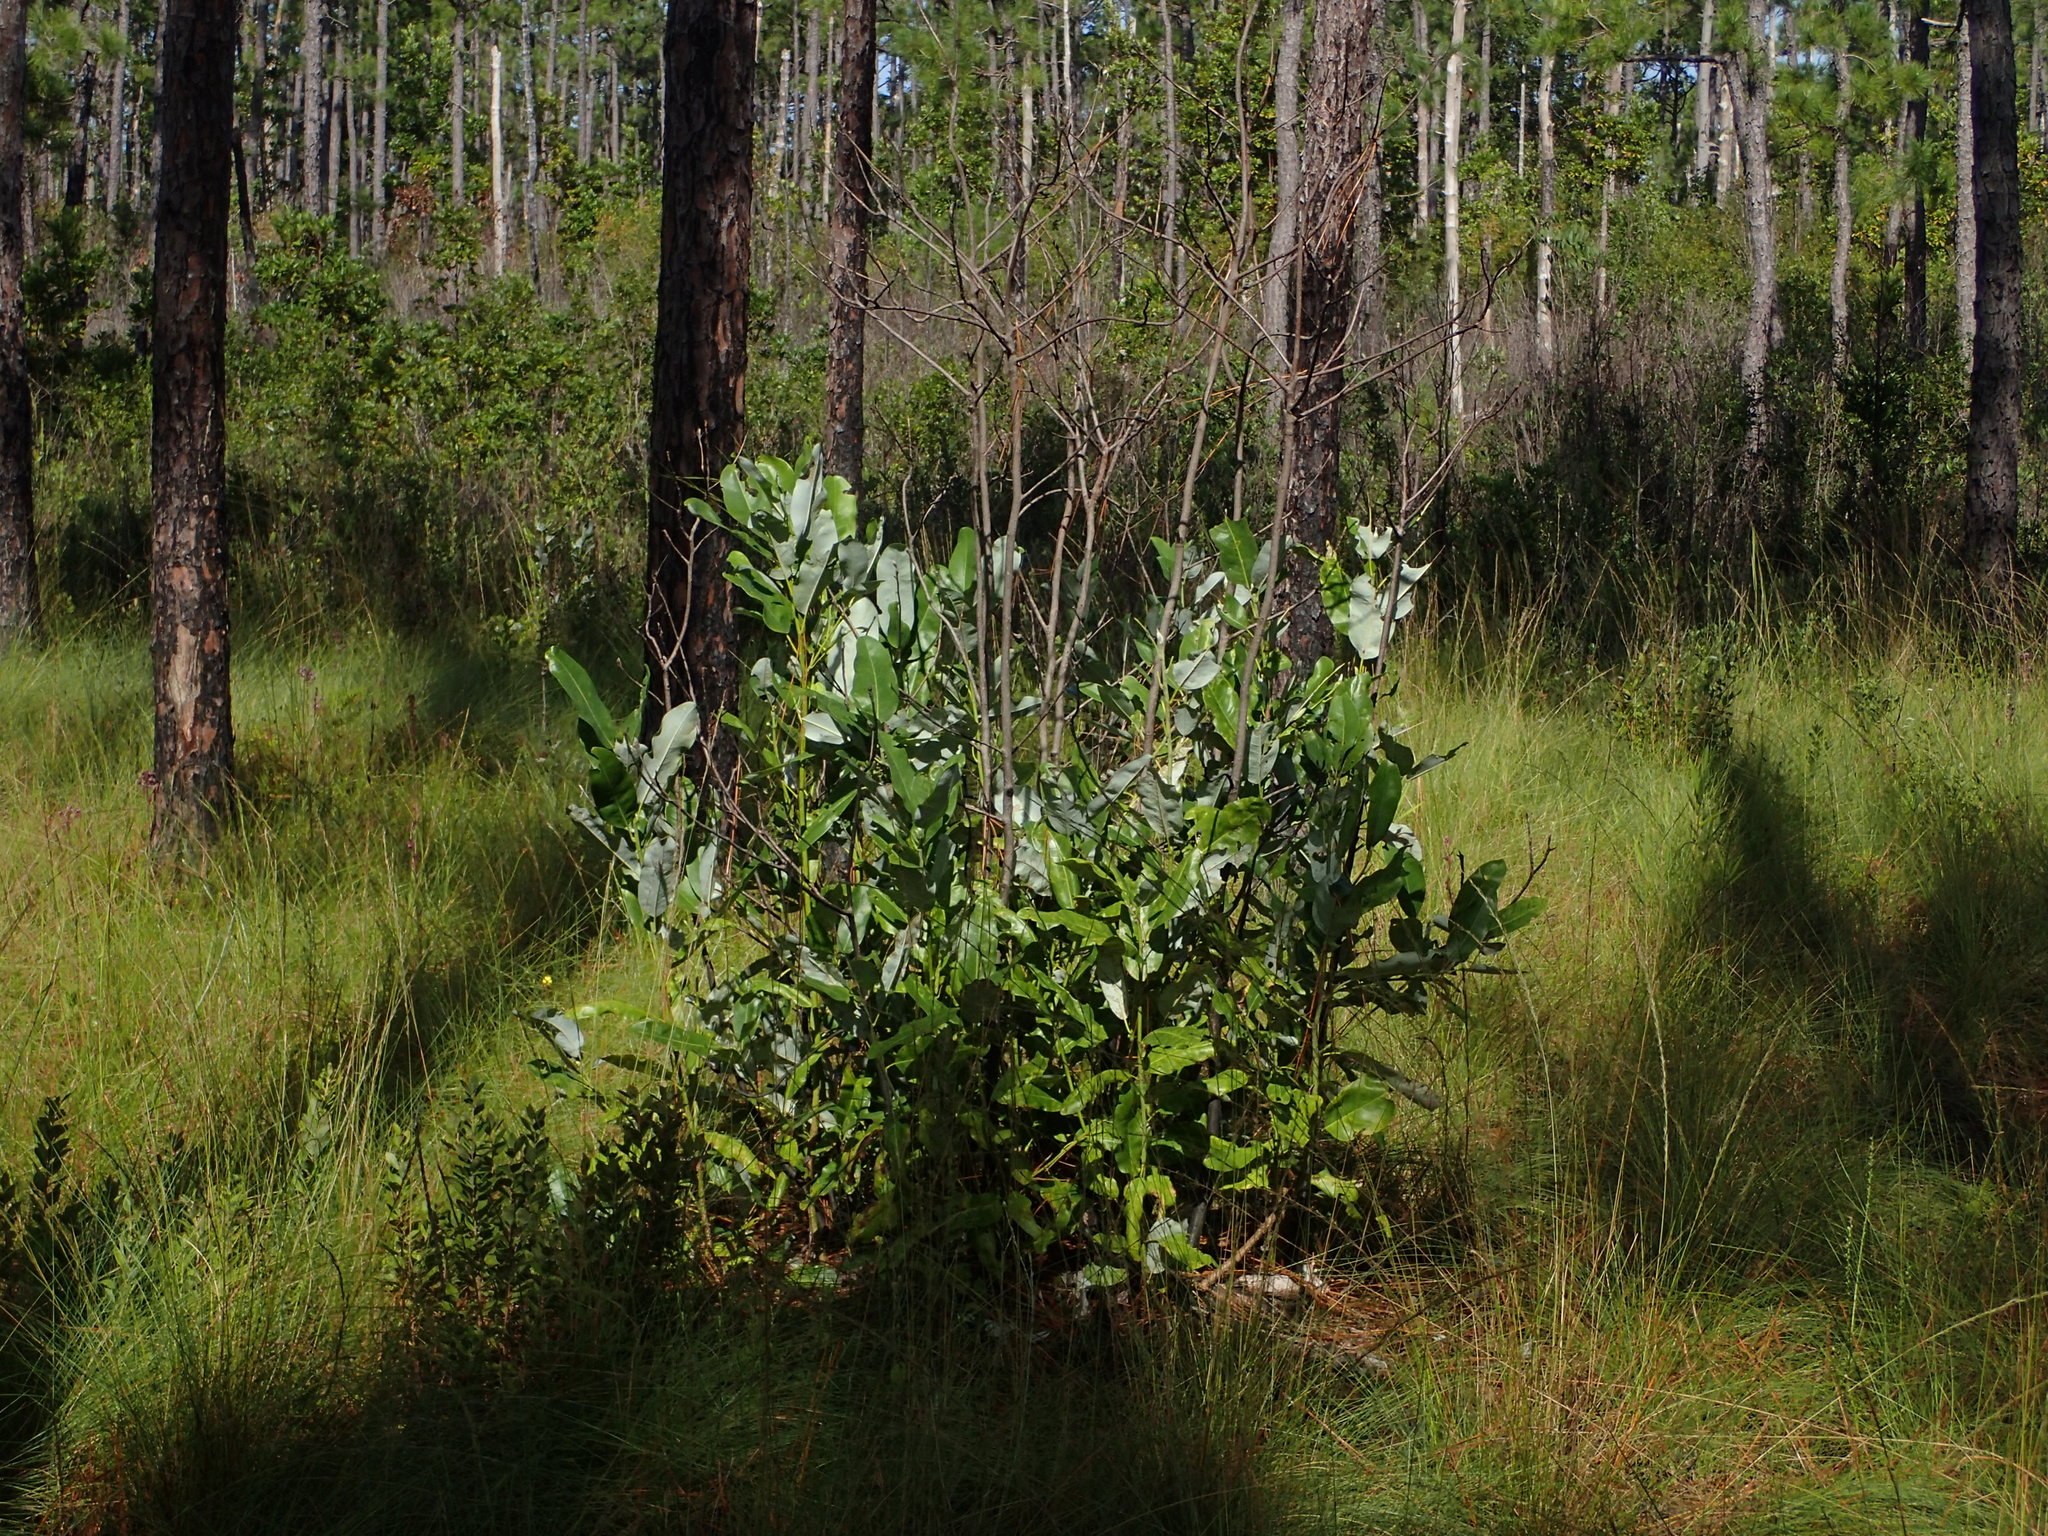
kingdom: Plantae
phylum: Tracheophyta
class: Magnoliopsida
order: Magnoliales
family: Magnoliaceae
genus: Magnolia
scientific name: Magnolia virginiana
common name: Swamp bay
